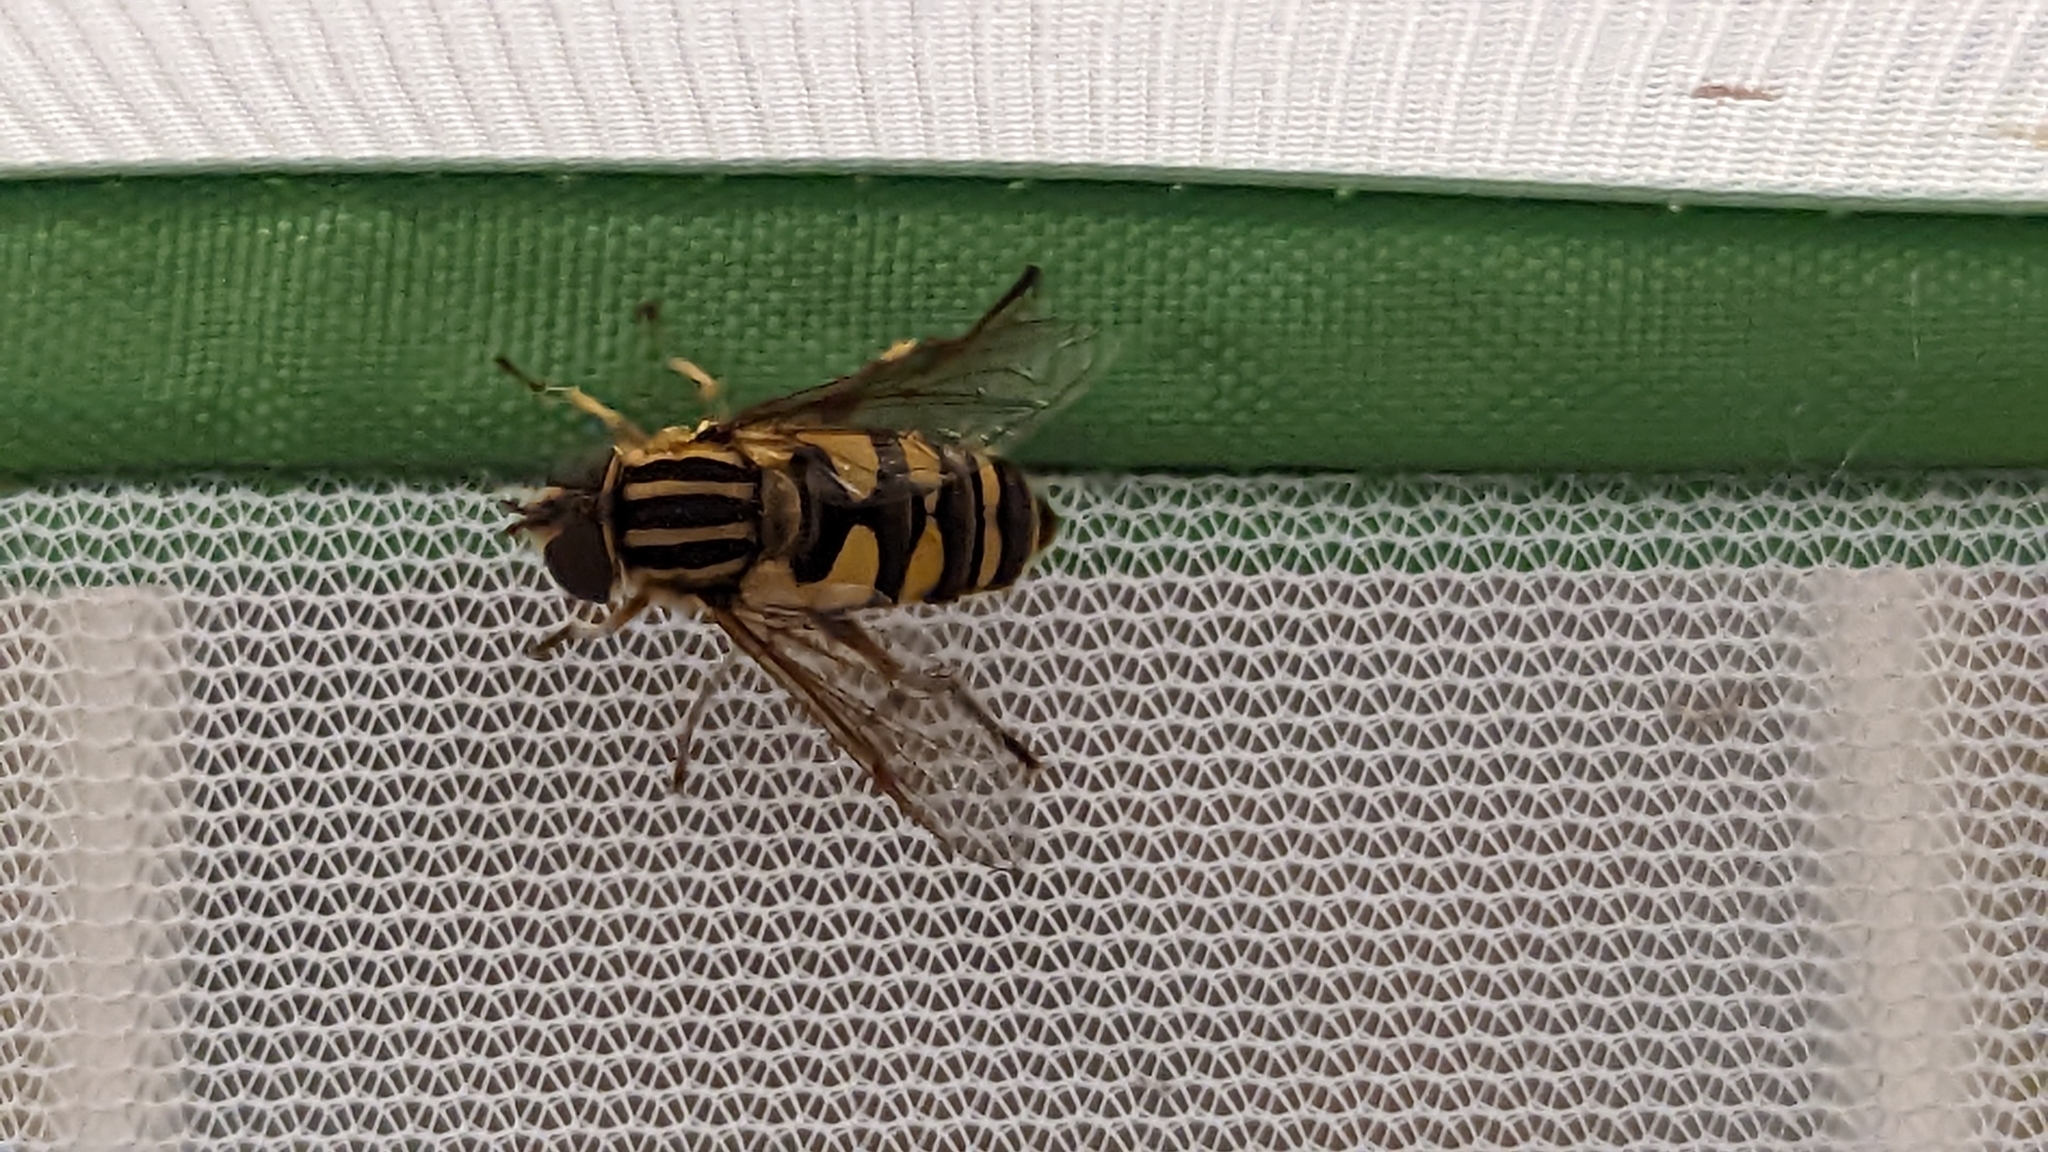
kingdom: Animalia
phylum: Arthropoda
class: Insecta
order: Diptera
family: Syrphidae
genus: Helophilus
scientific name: Helophilus fasciatus
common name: Narrow-headed marsh fly
